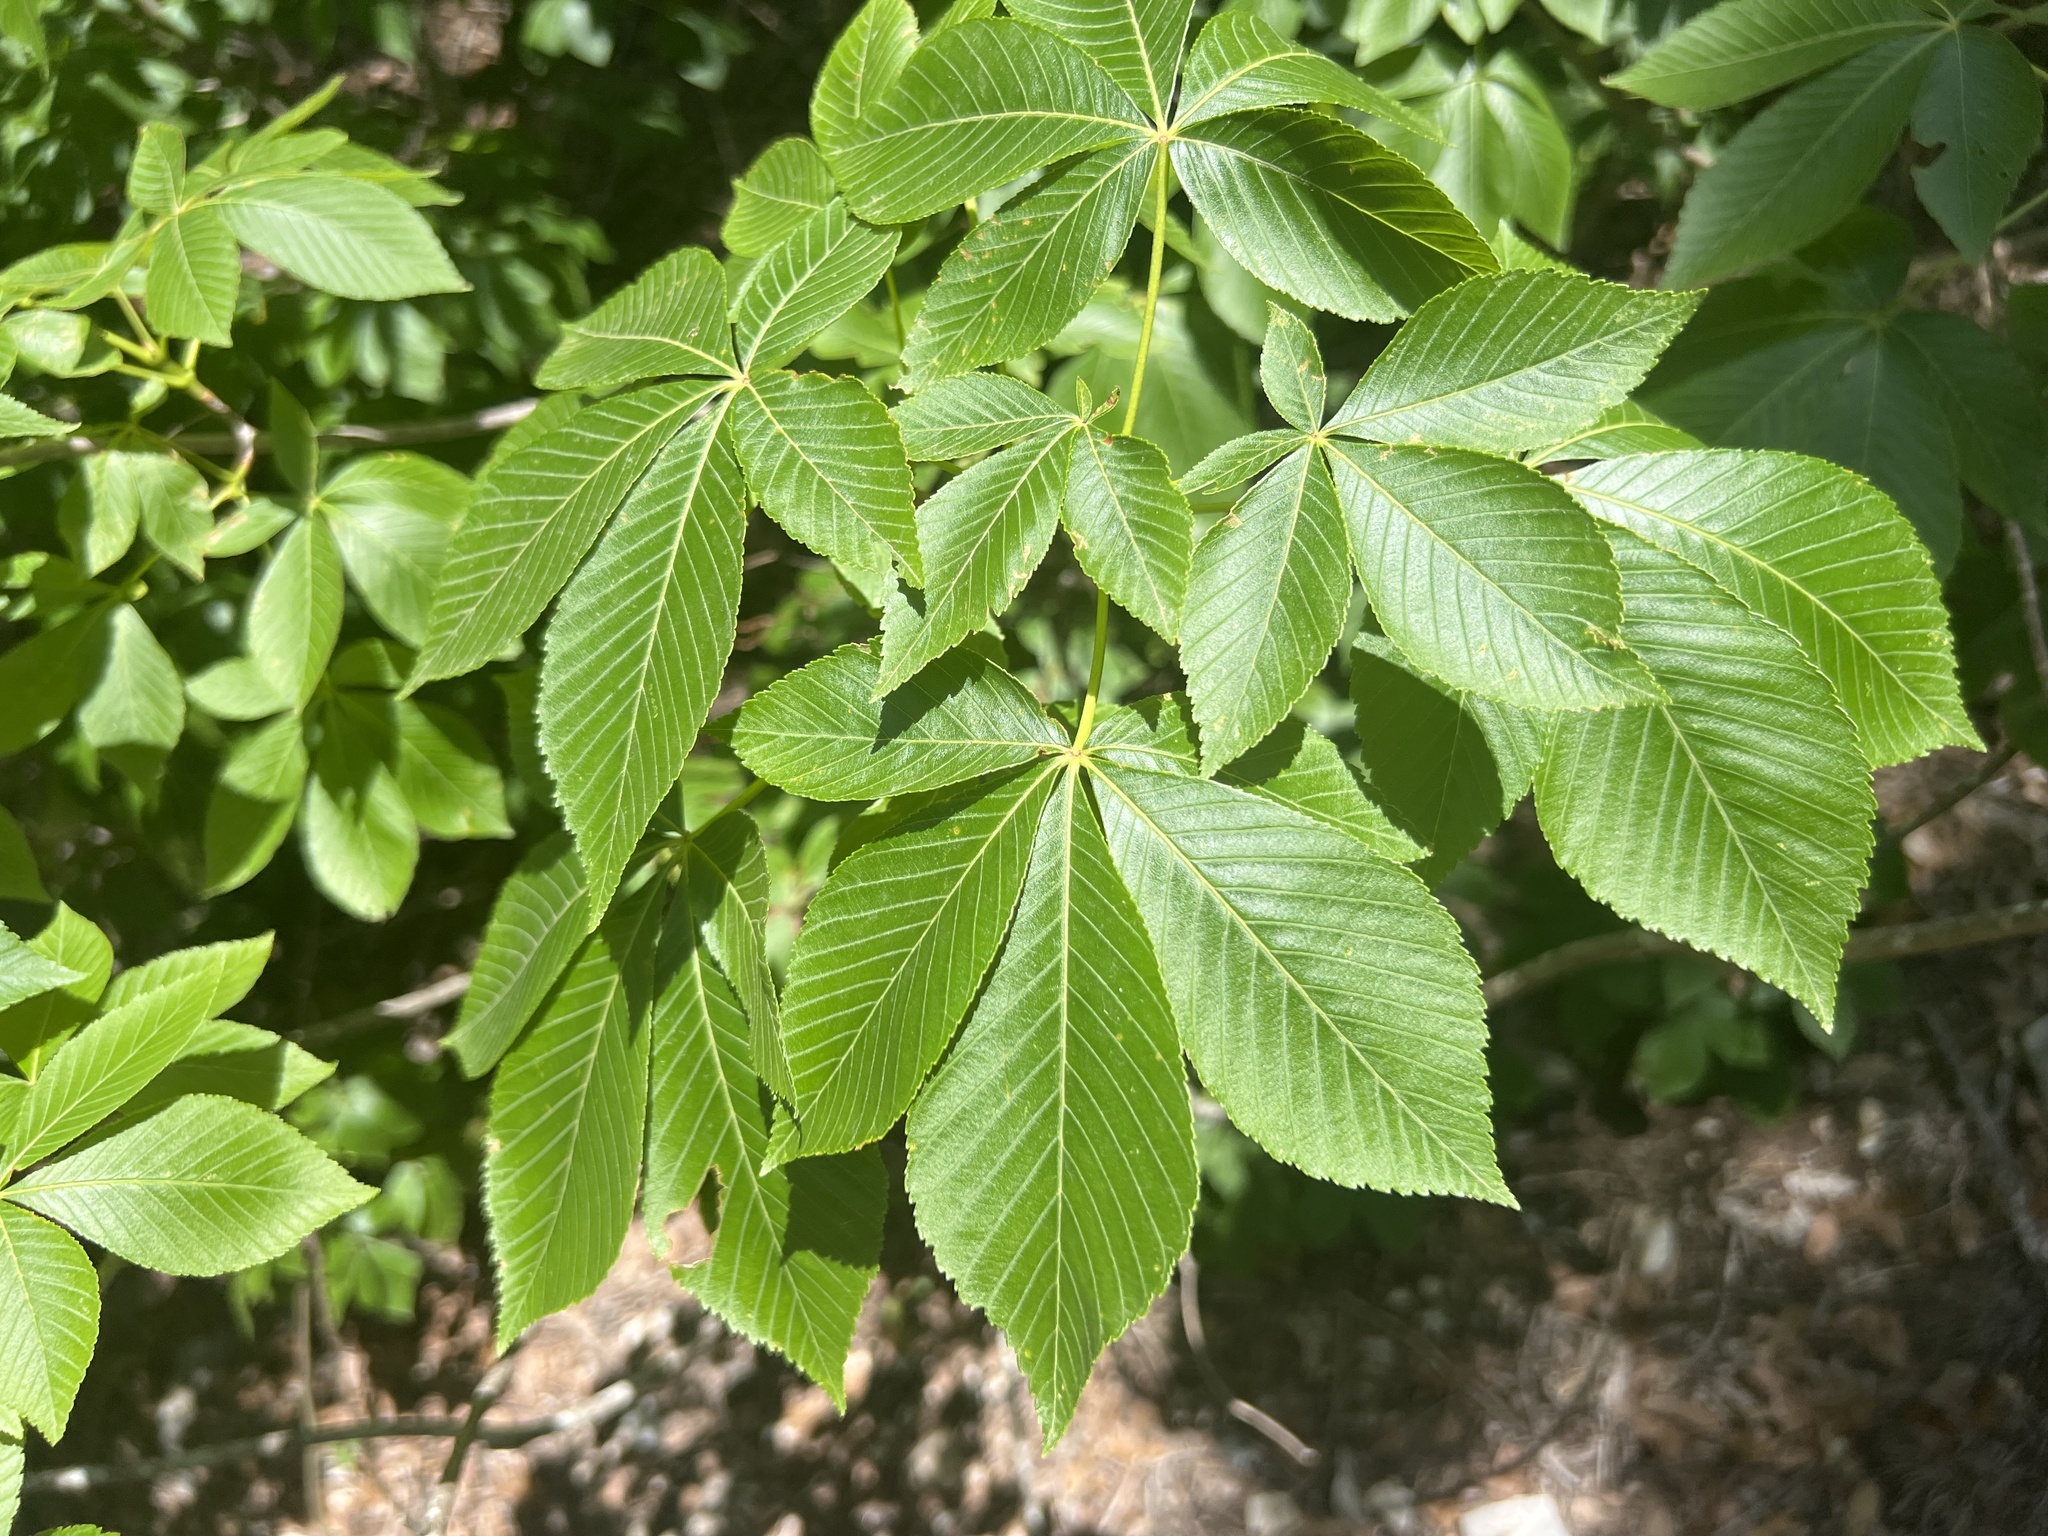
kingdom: Plantae
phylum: Tracheophyta
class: Magnoliopsida
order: Sapindales
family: Sapindaceae
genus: Aesculus
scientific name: Aesculus pavia
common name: Red buckeye
